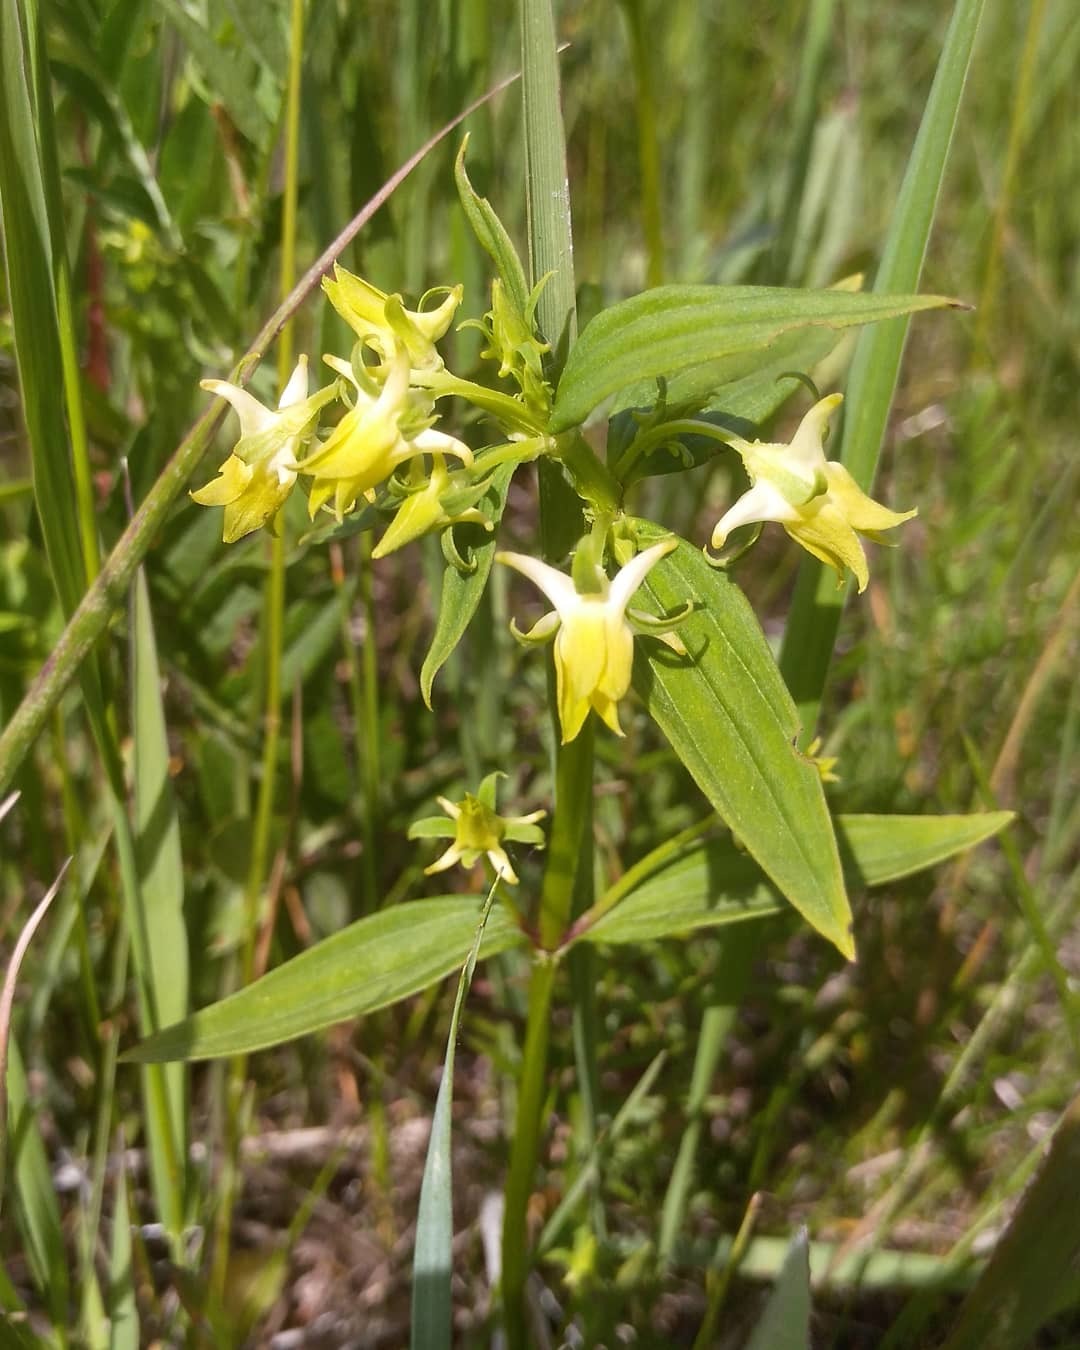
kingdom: Plantae
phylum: Tracheophyta
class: Magnoliopsida
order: Gentianales
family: Gentianaceae
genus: Halenia
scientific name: Halenia corniculata
